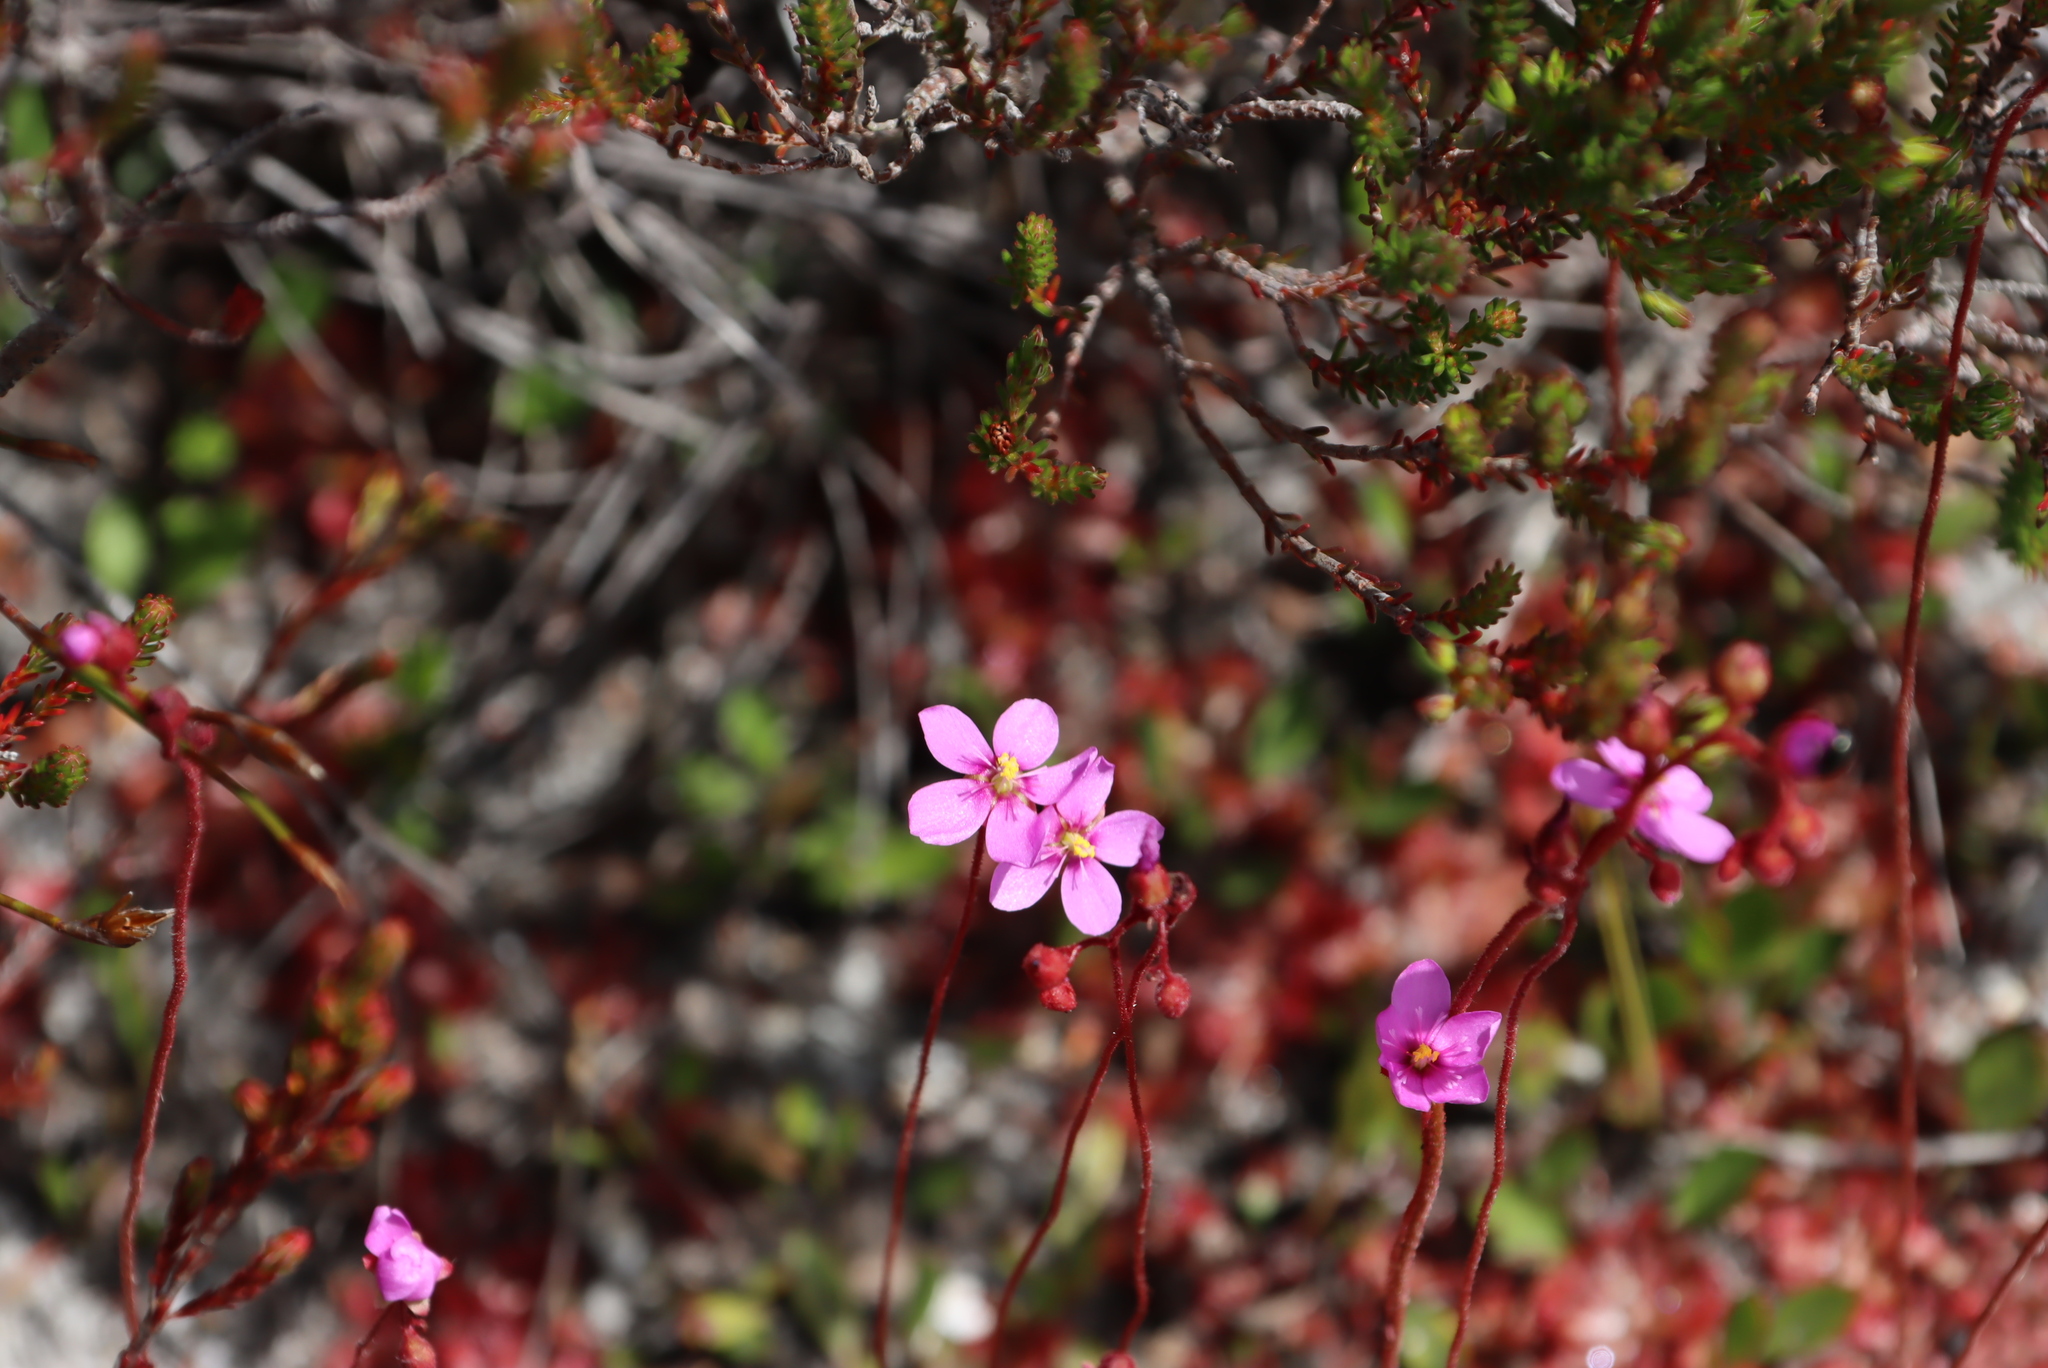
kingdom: Plantae
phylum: Tracheophyta
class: Magnoliopsida
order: Caryophyllales
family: Droseraceae
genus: Drosera
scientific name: Drosera aliciae
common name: Alice sundew
